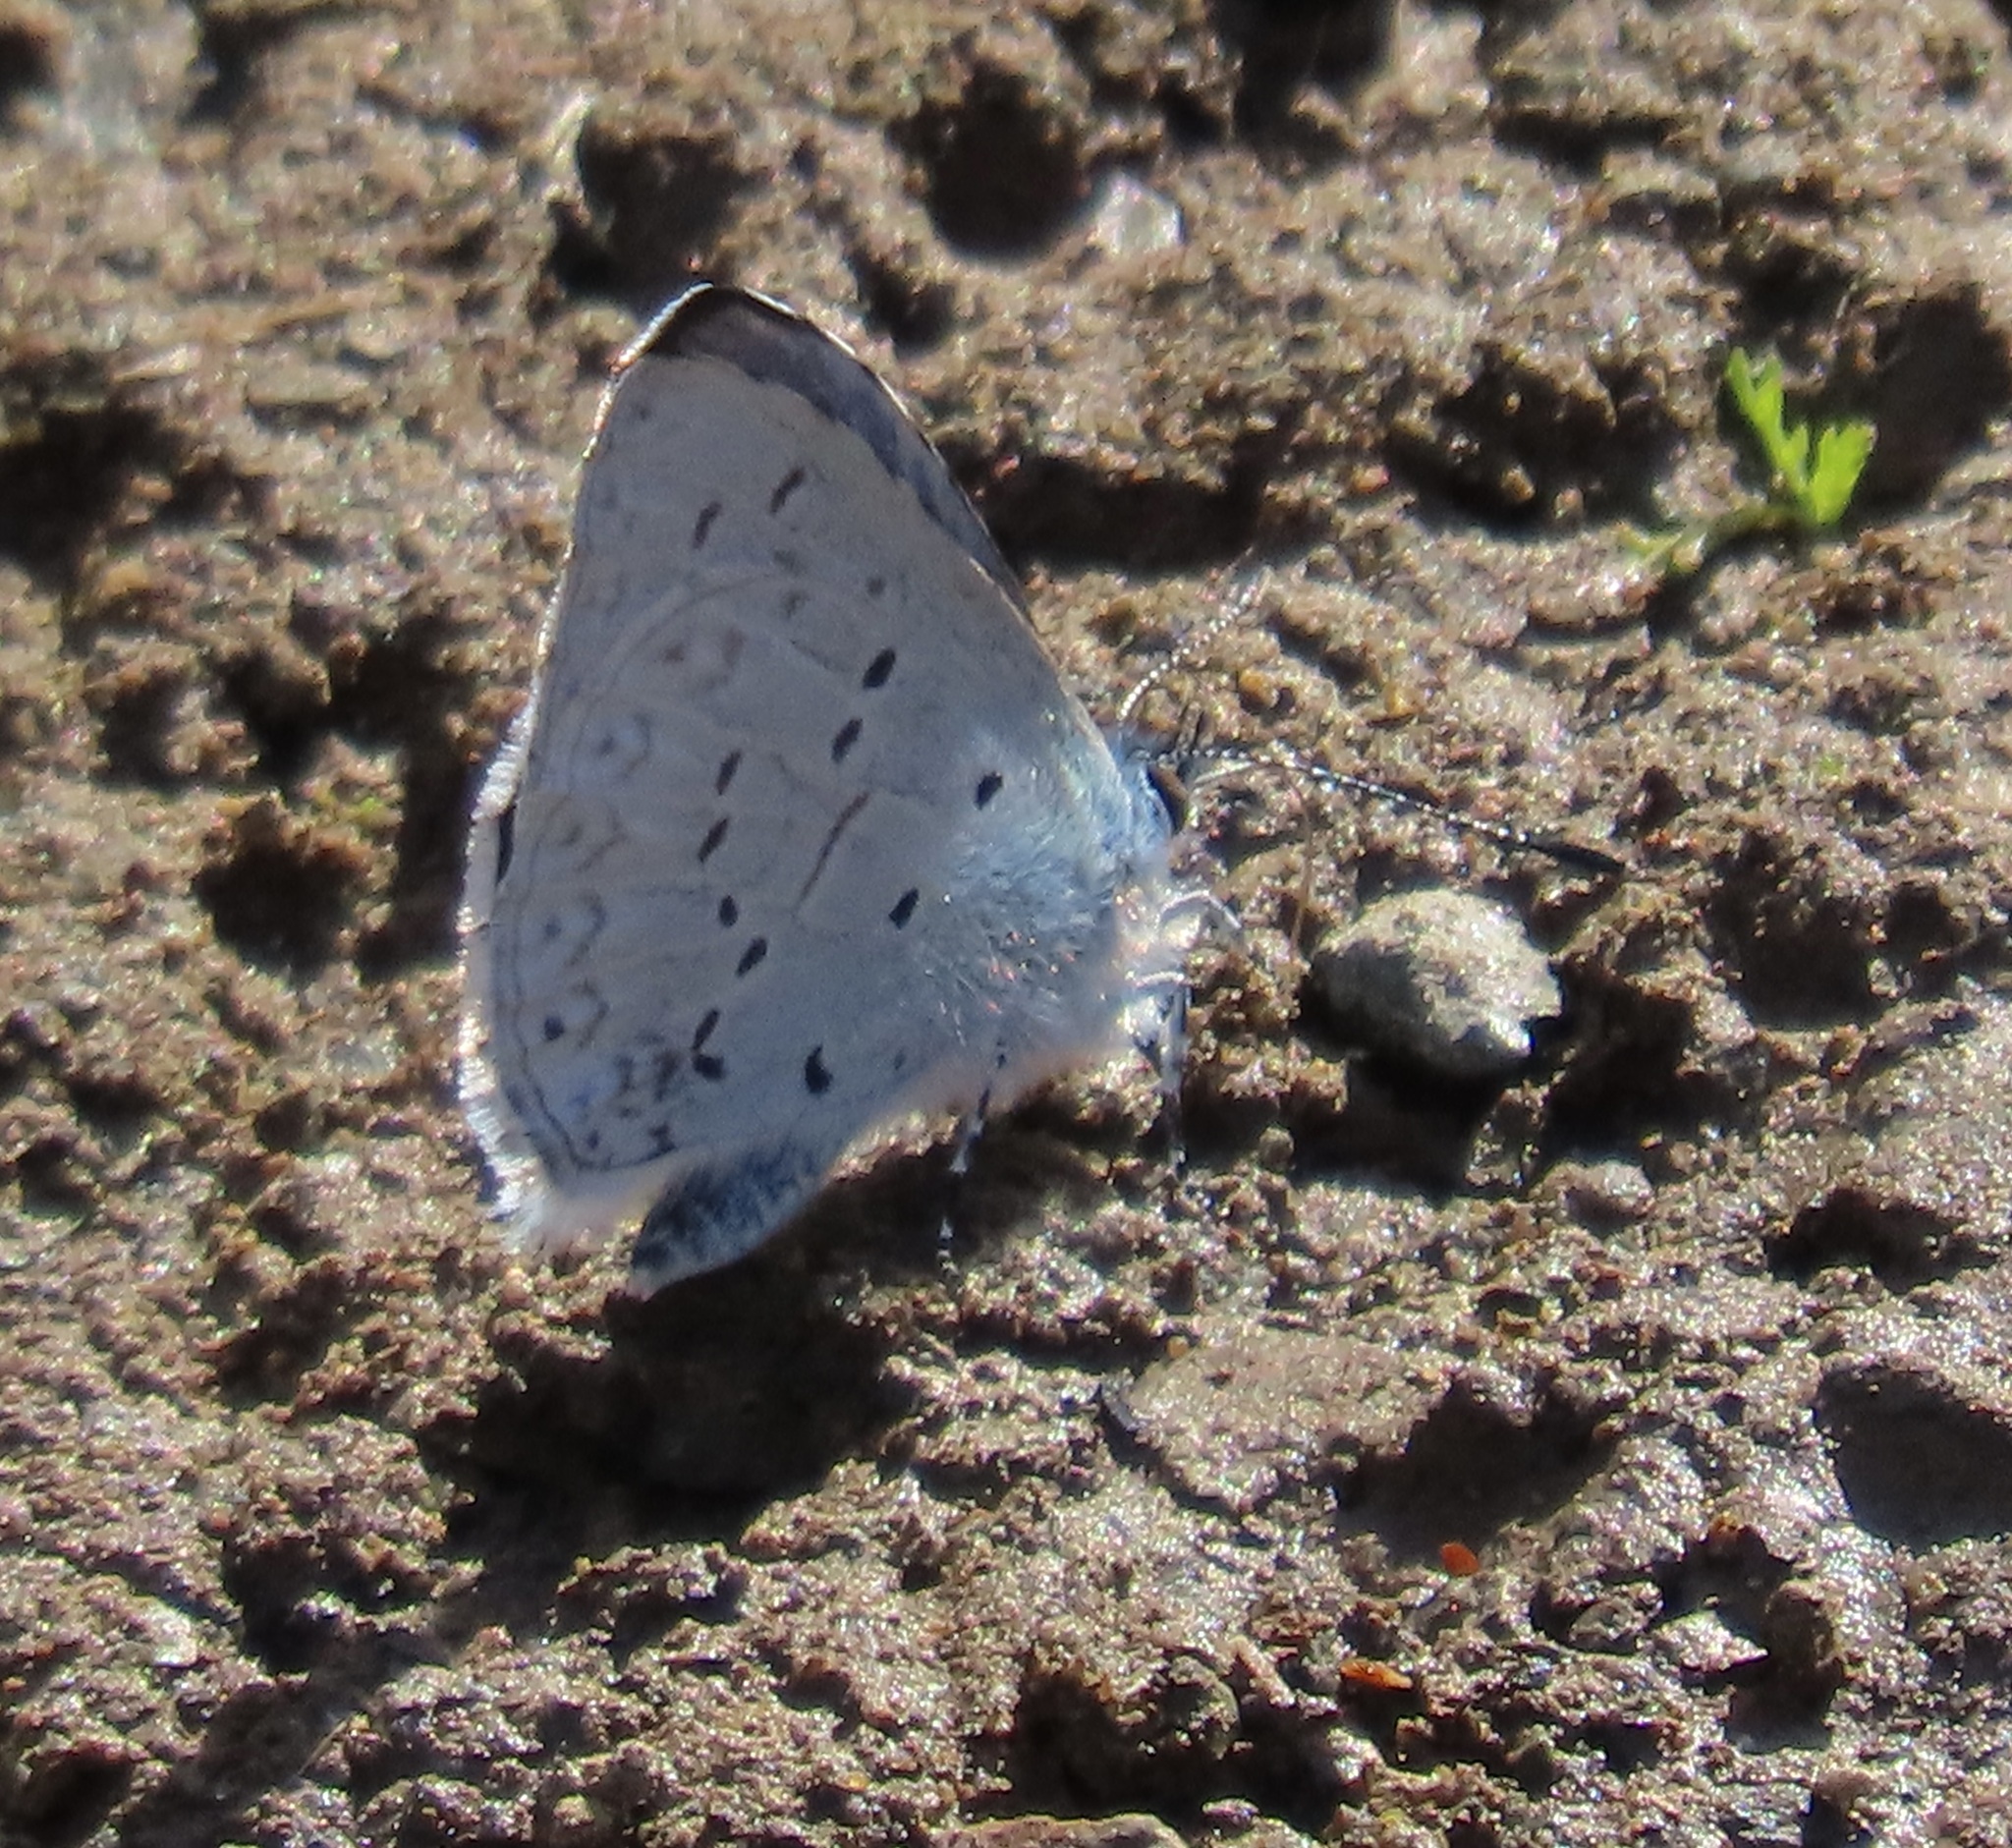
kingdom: Animalia
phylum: Arthropoda
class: Insecta
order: Lepidoptera
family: Lycaenidae
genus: Celastrina
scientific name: Celastrina ladon
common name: Spring azure
